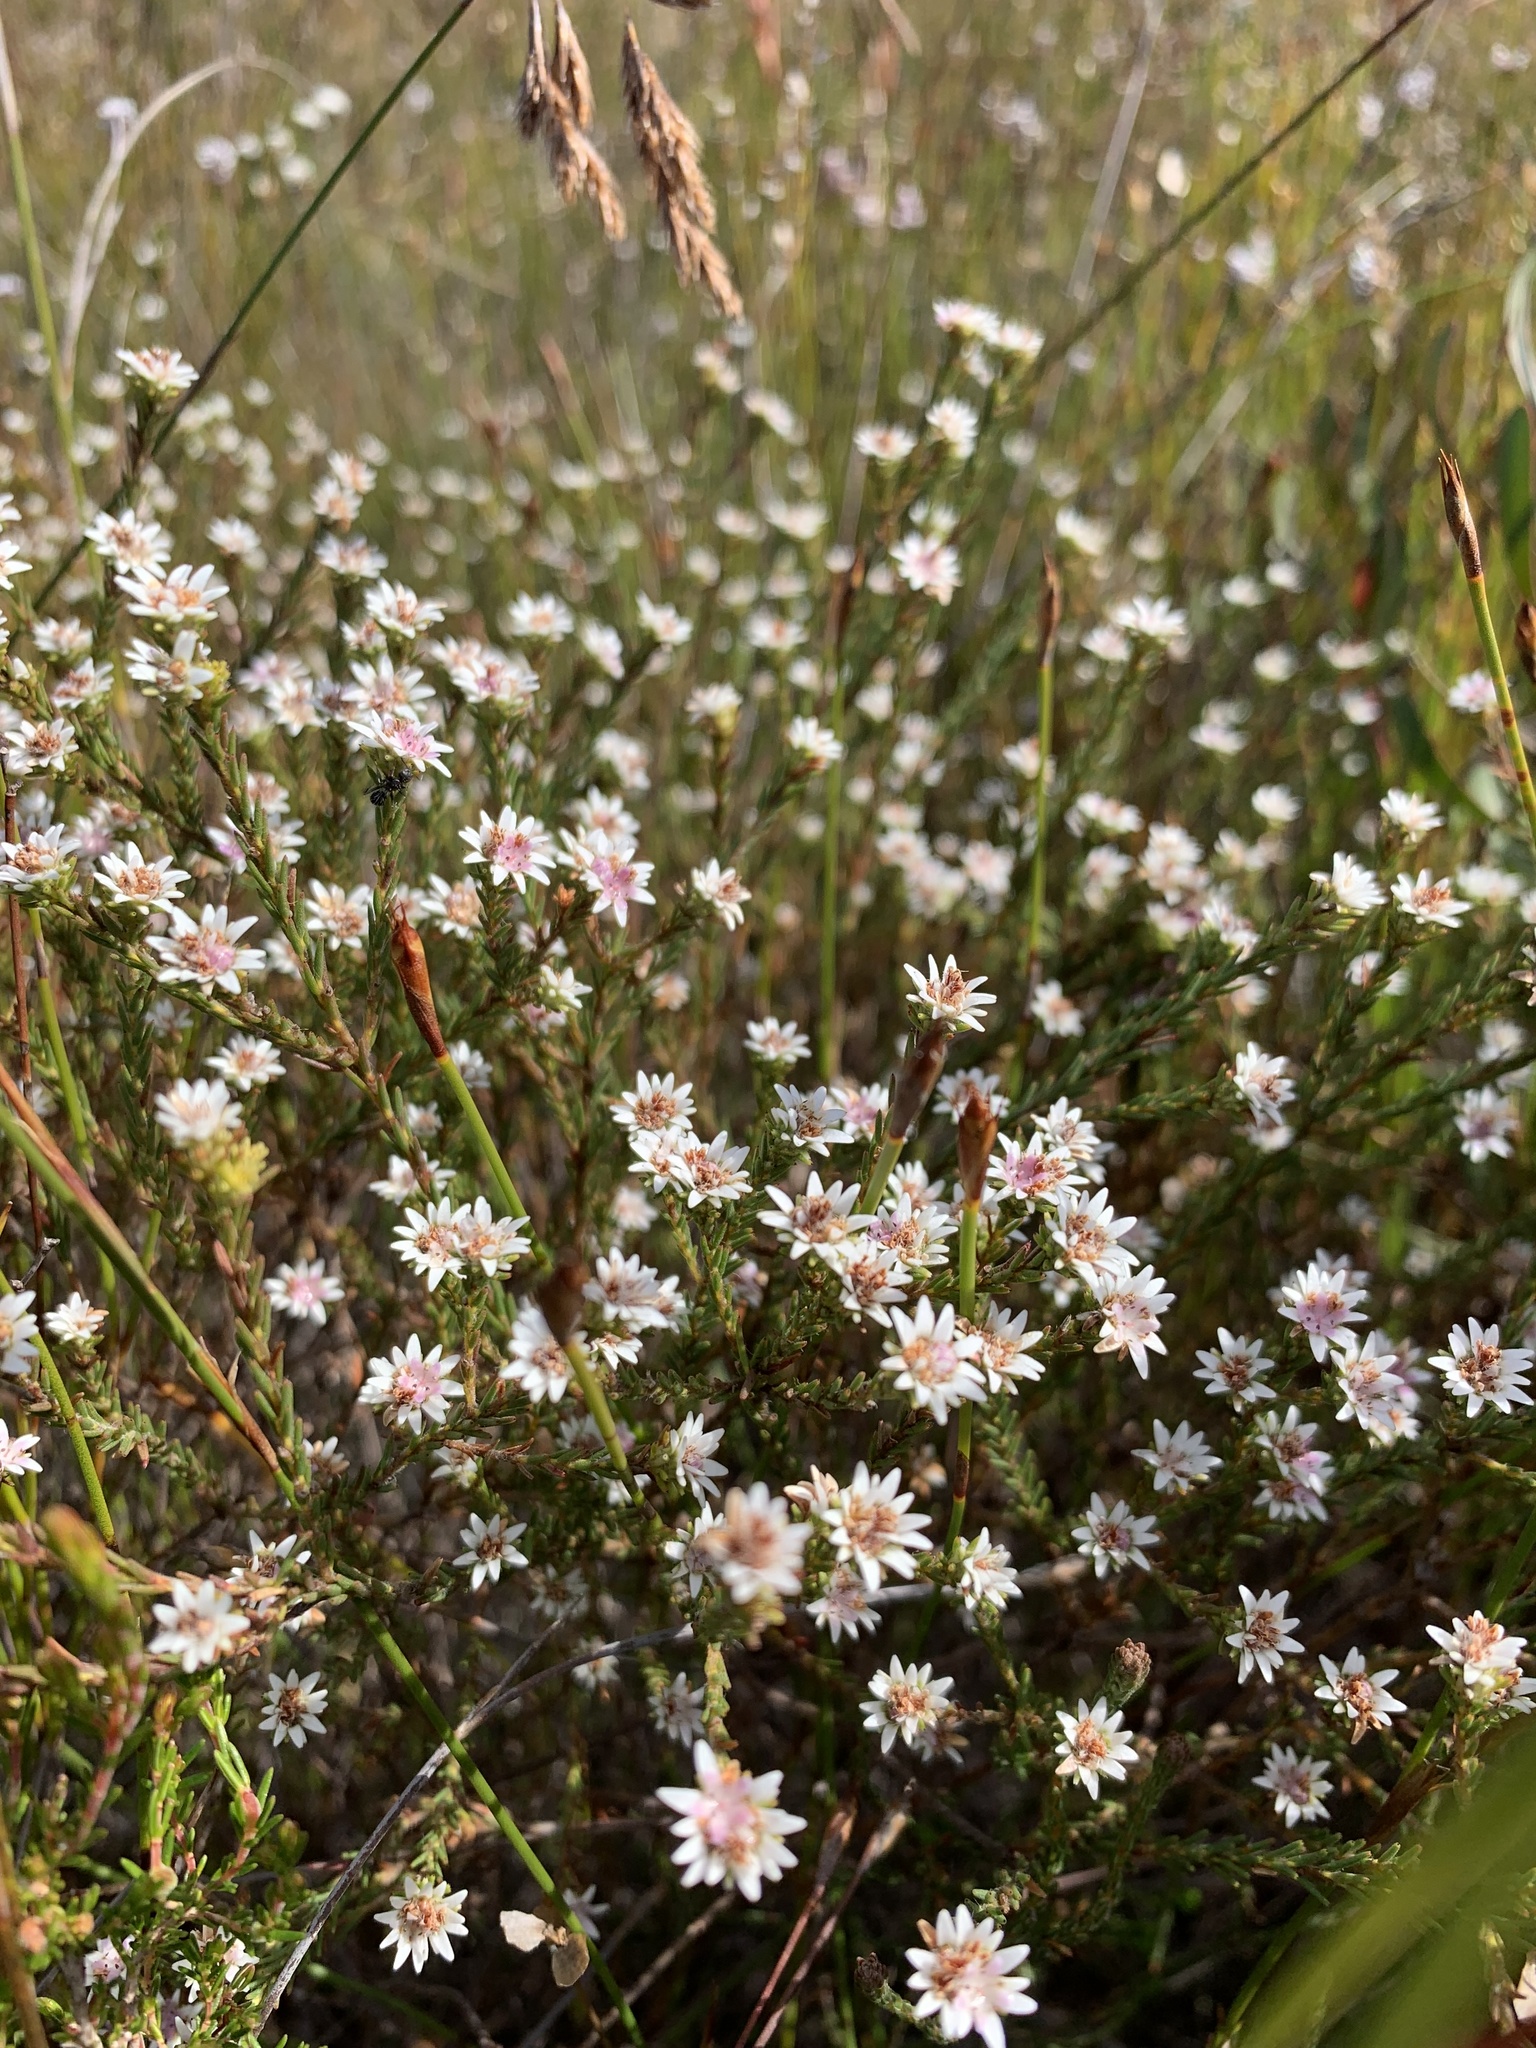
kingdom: Plantae
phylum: Tracheophyta
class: Magnoliopsida
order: Bruniales
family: Bruniaceae
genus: Staavia
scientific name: Staavia radiata
